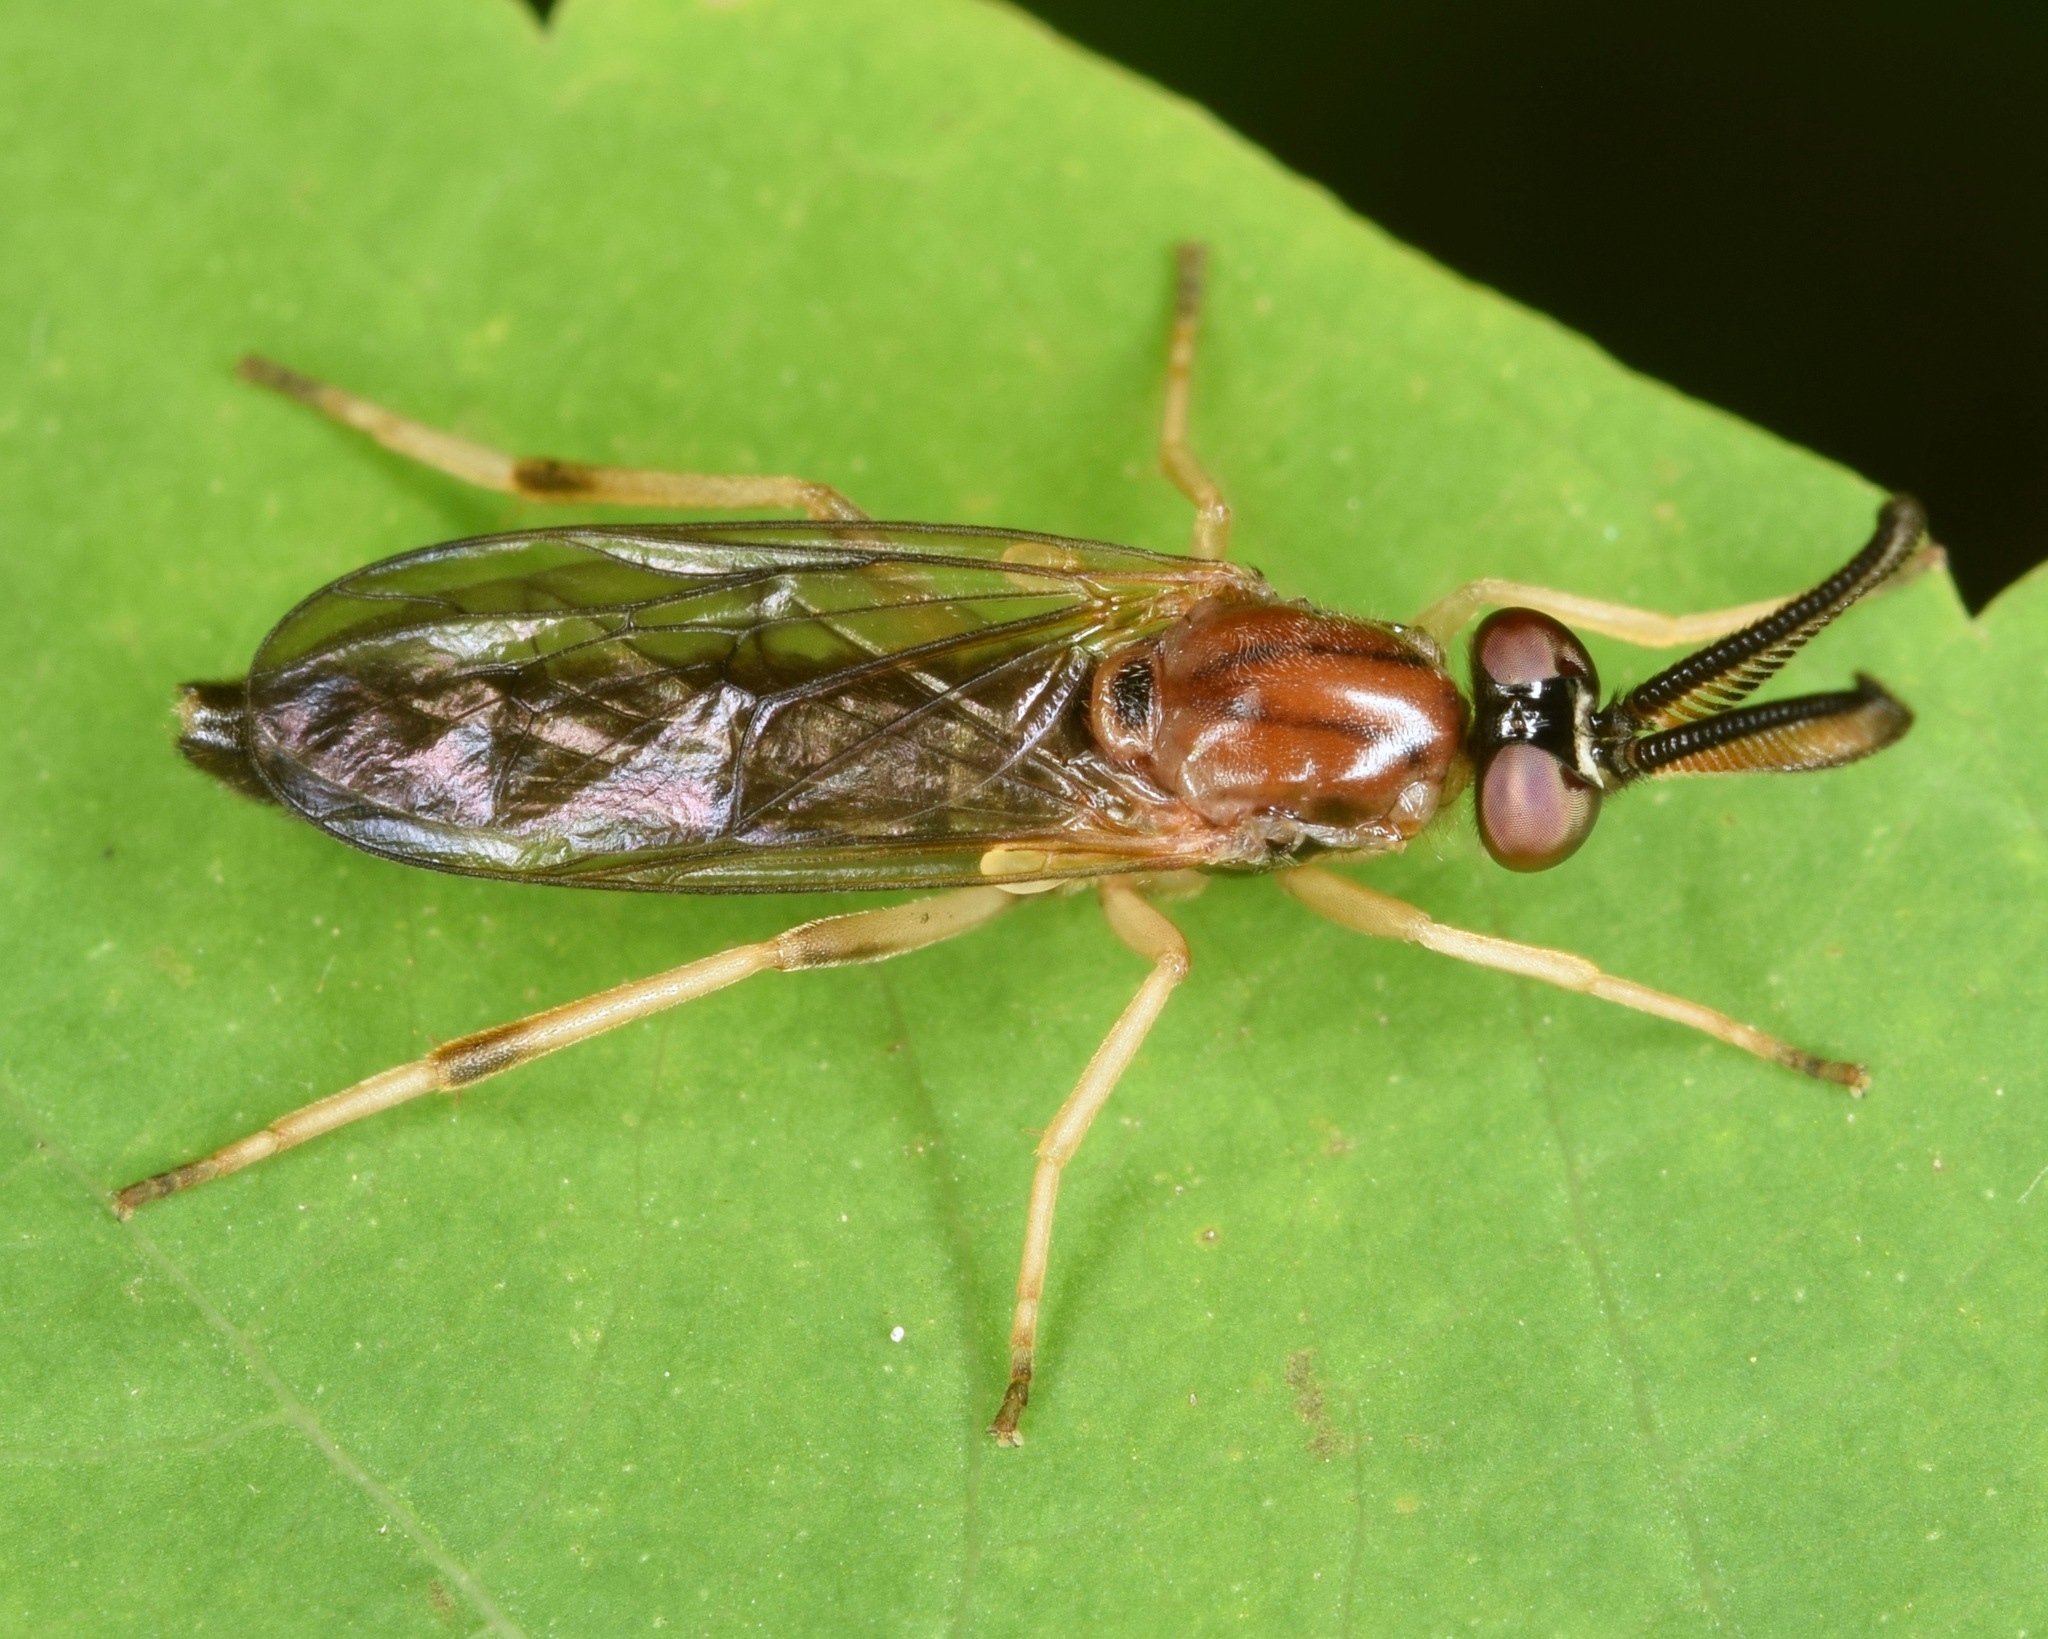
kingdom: Animalia
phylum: Arthropoda
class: Insecta
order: Diptera
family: Xylophagidae
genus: Rachicerus
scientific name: Rachicerus obscuripennis
